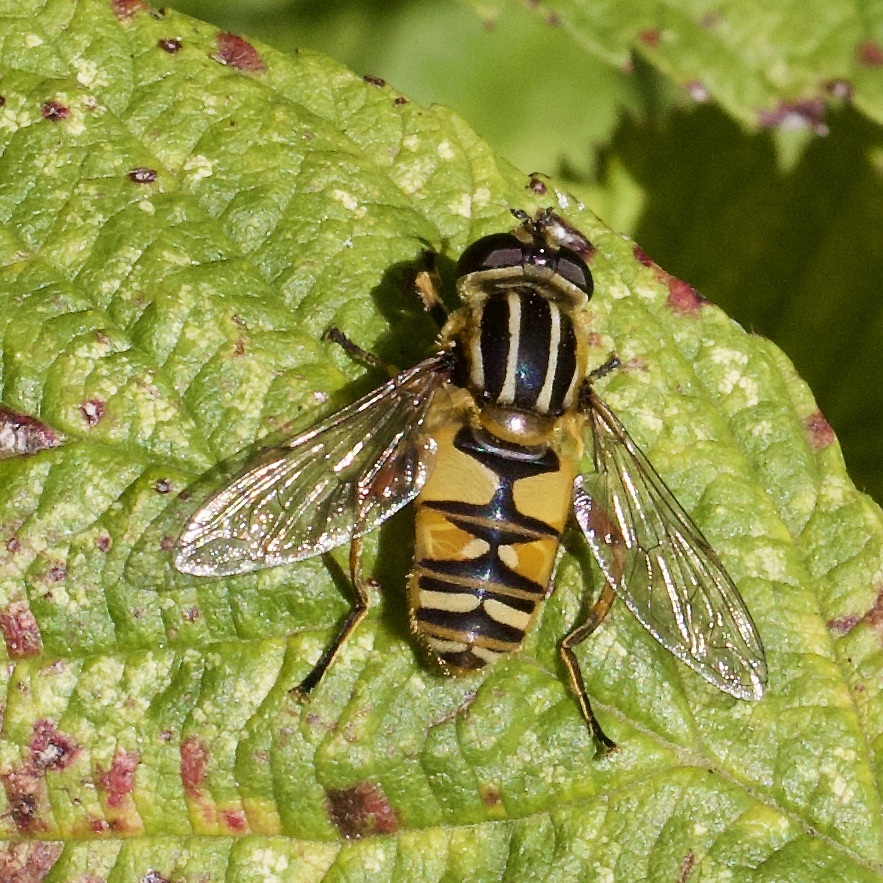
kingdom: Animalia
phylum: Arthropoda
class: Insecta
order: Diptera
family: Syrphidae
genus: Helophilus
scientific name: Helophilus pendulus
